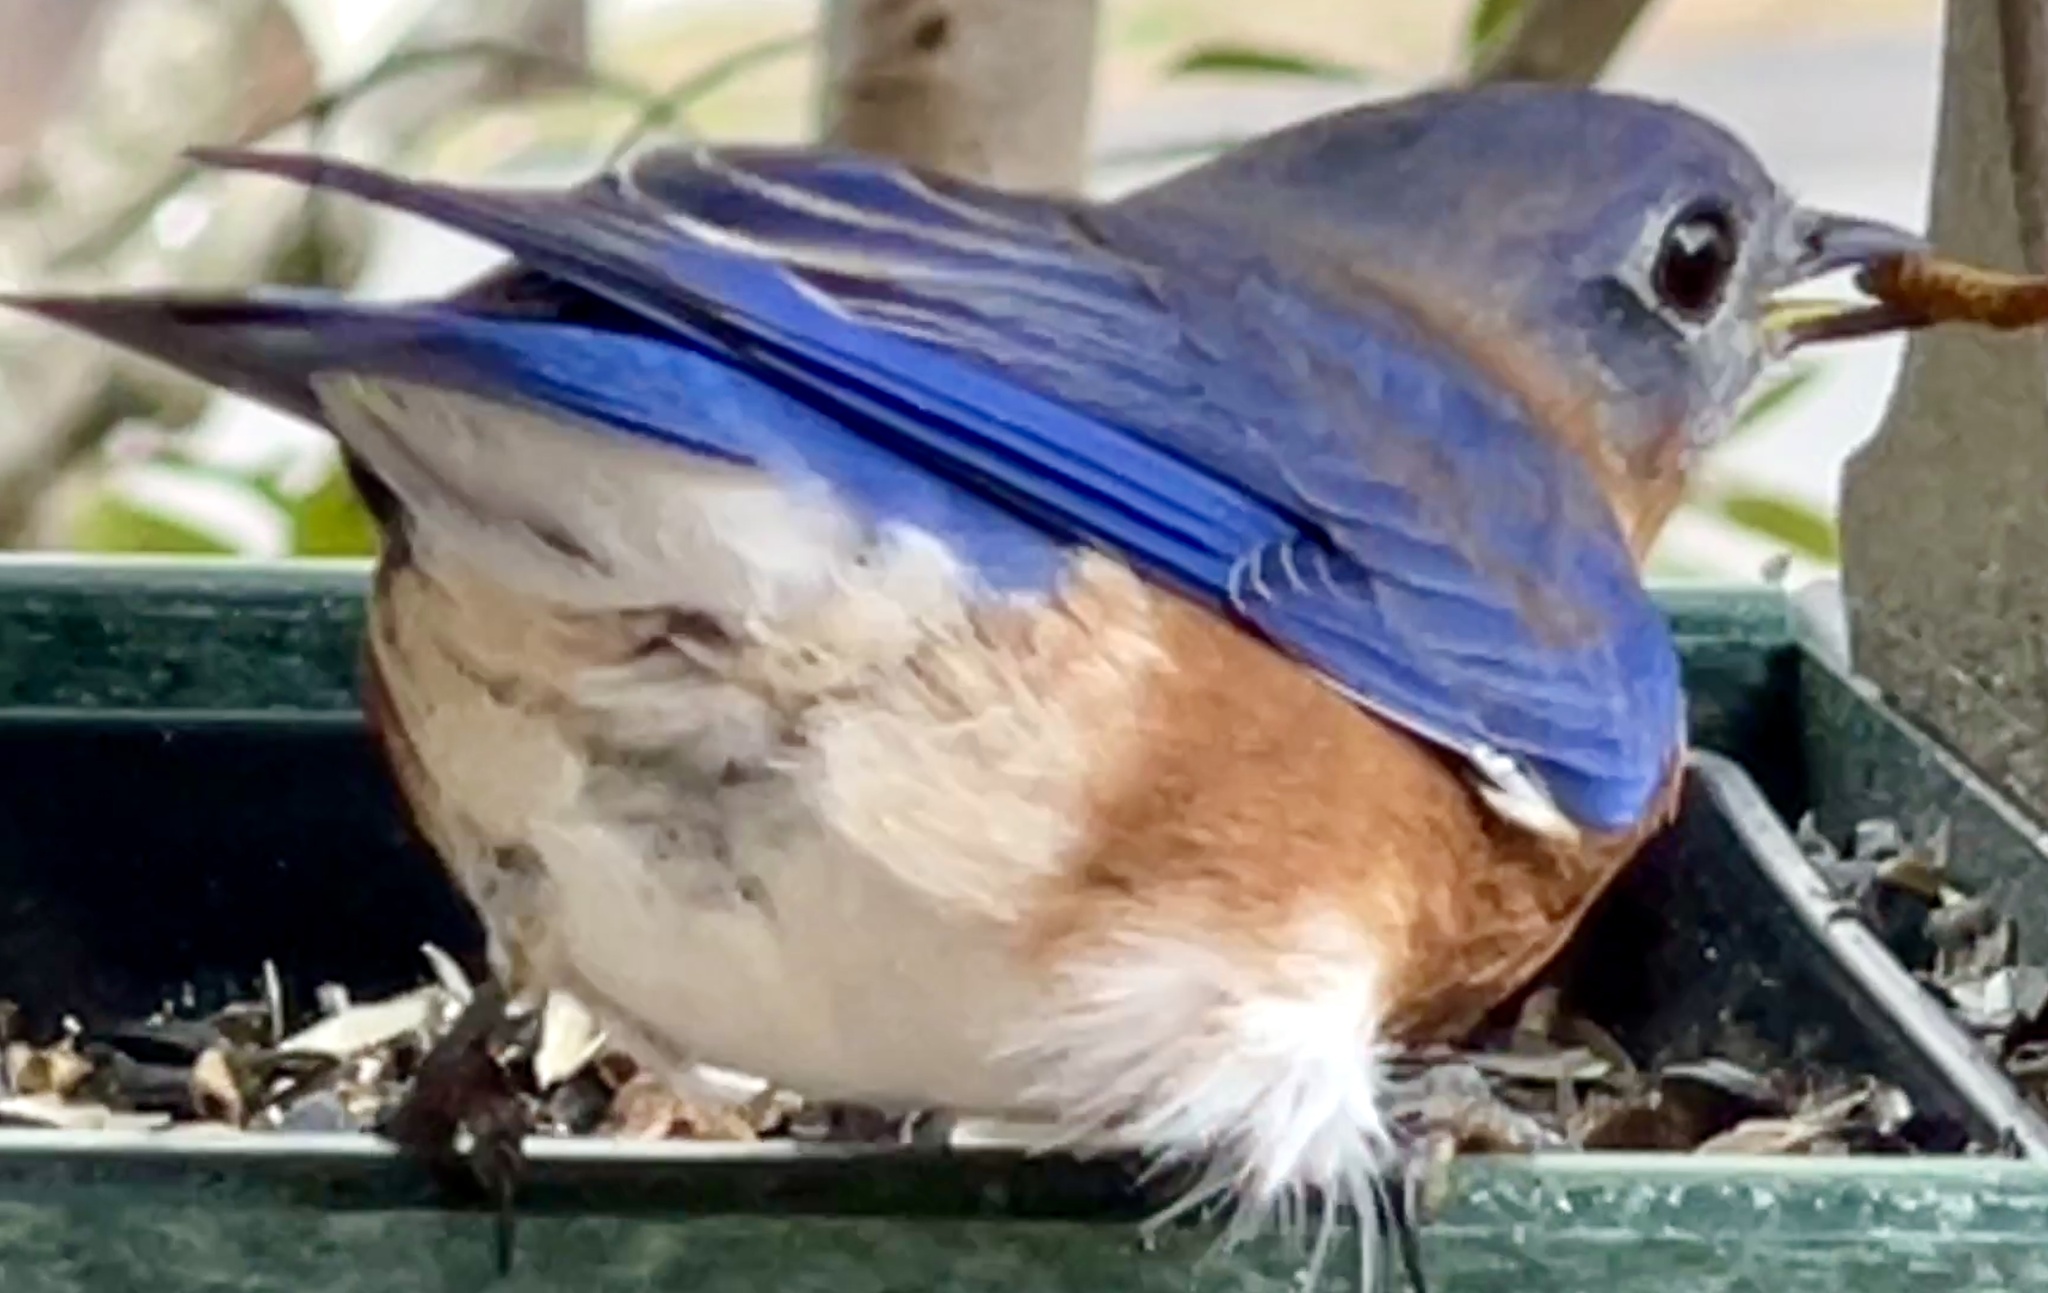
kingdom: Animalia
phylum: Chordata
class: Aves
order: Passeriformes
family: Turdidae
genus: Sialia
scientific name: Sialia sialis
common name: Eastern bluebird
